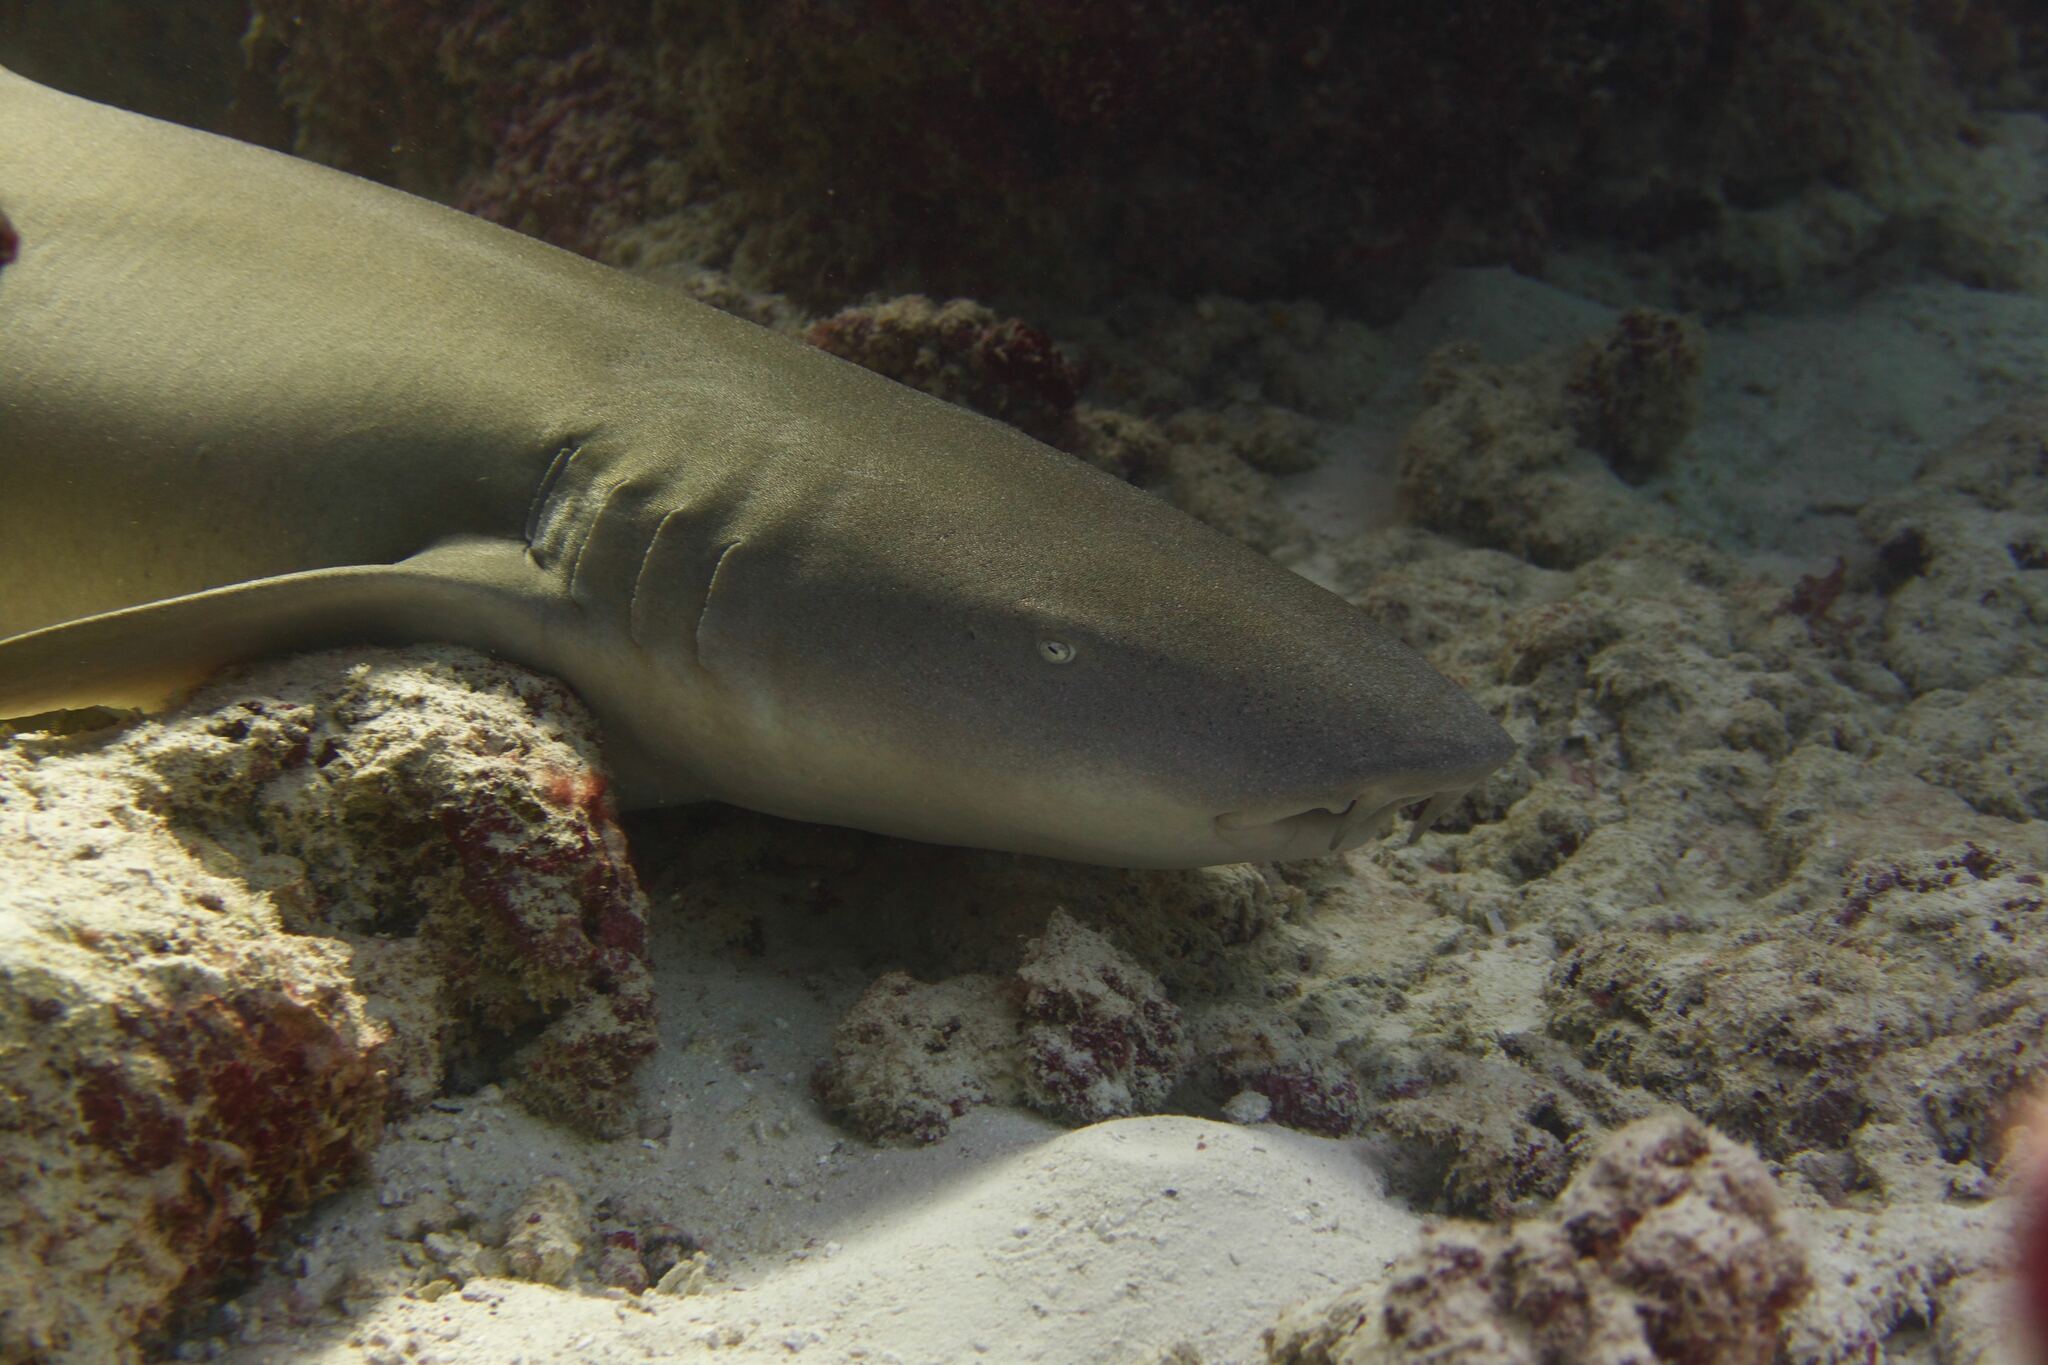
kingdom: Animalia
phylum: Chordata
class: Elasmobranchii
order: Orectolobiformes
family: Ginglymostomatidae
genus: Nebrius
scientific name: Nebrius ferrugineus
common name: Tawny nurse shark
